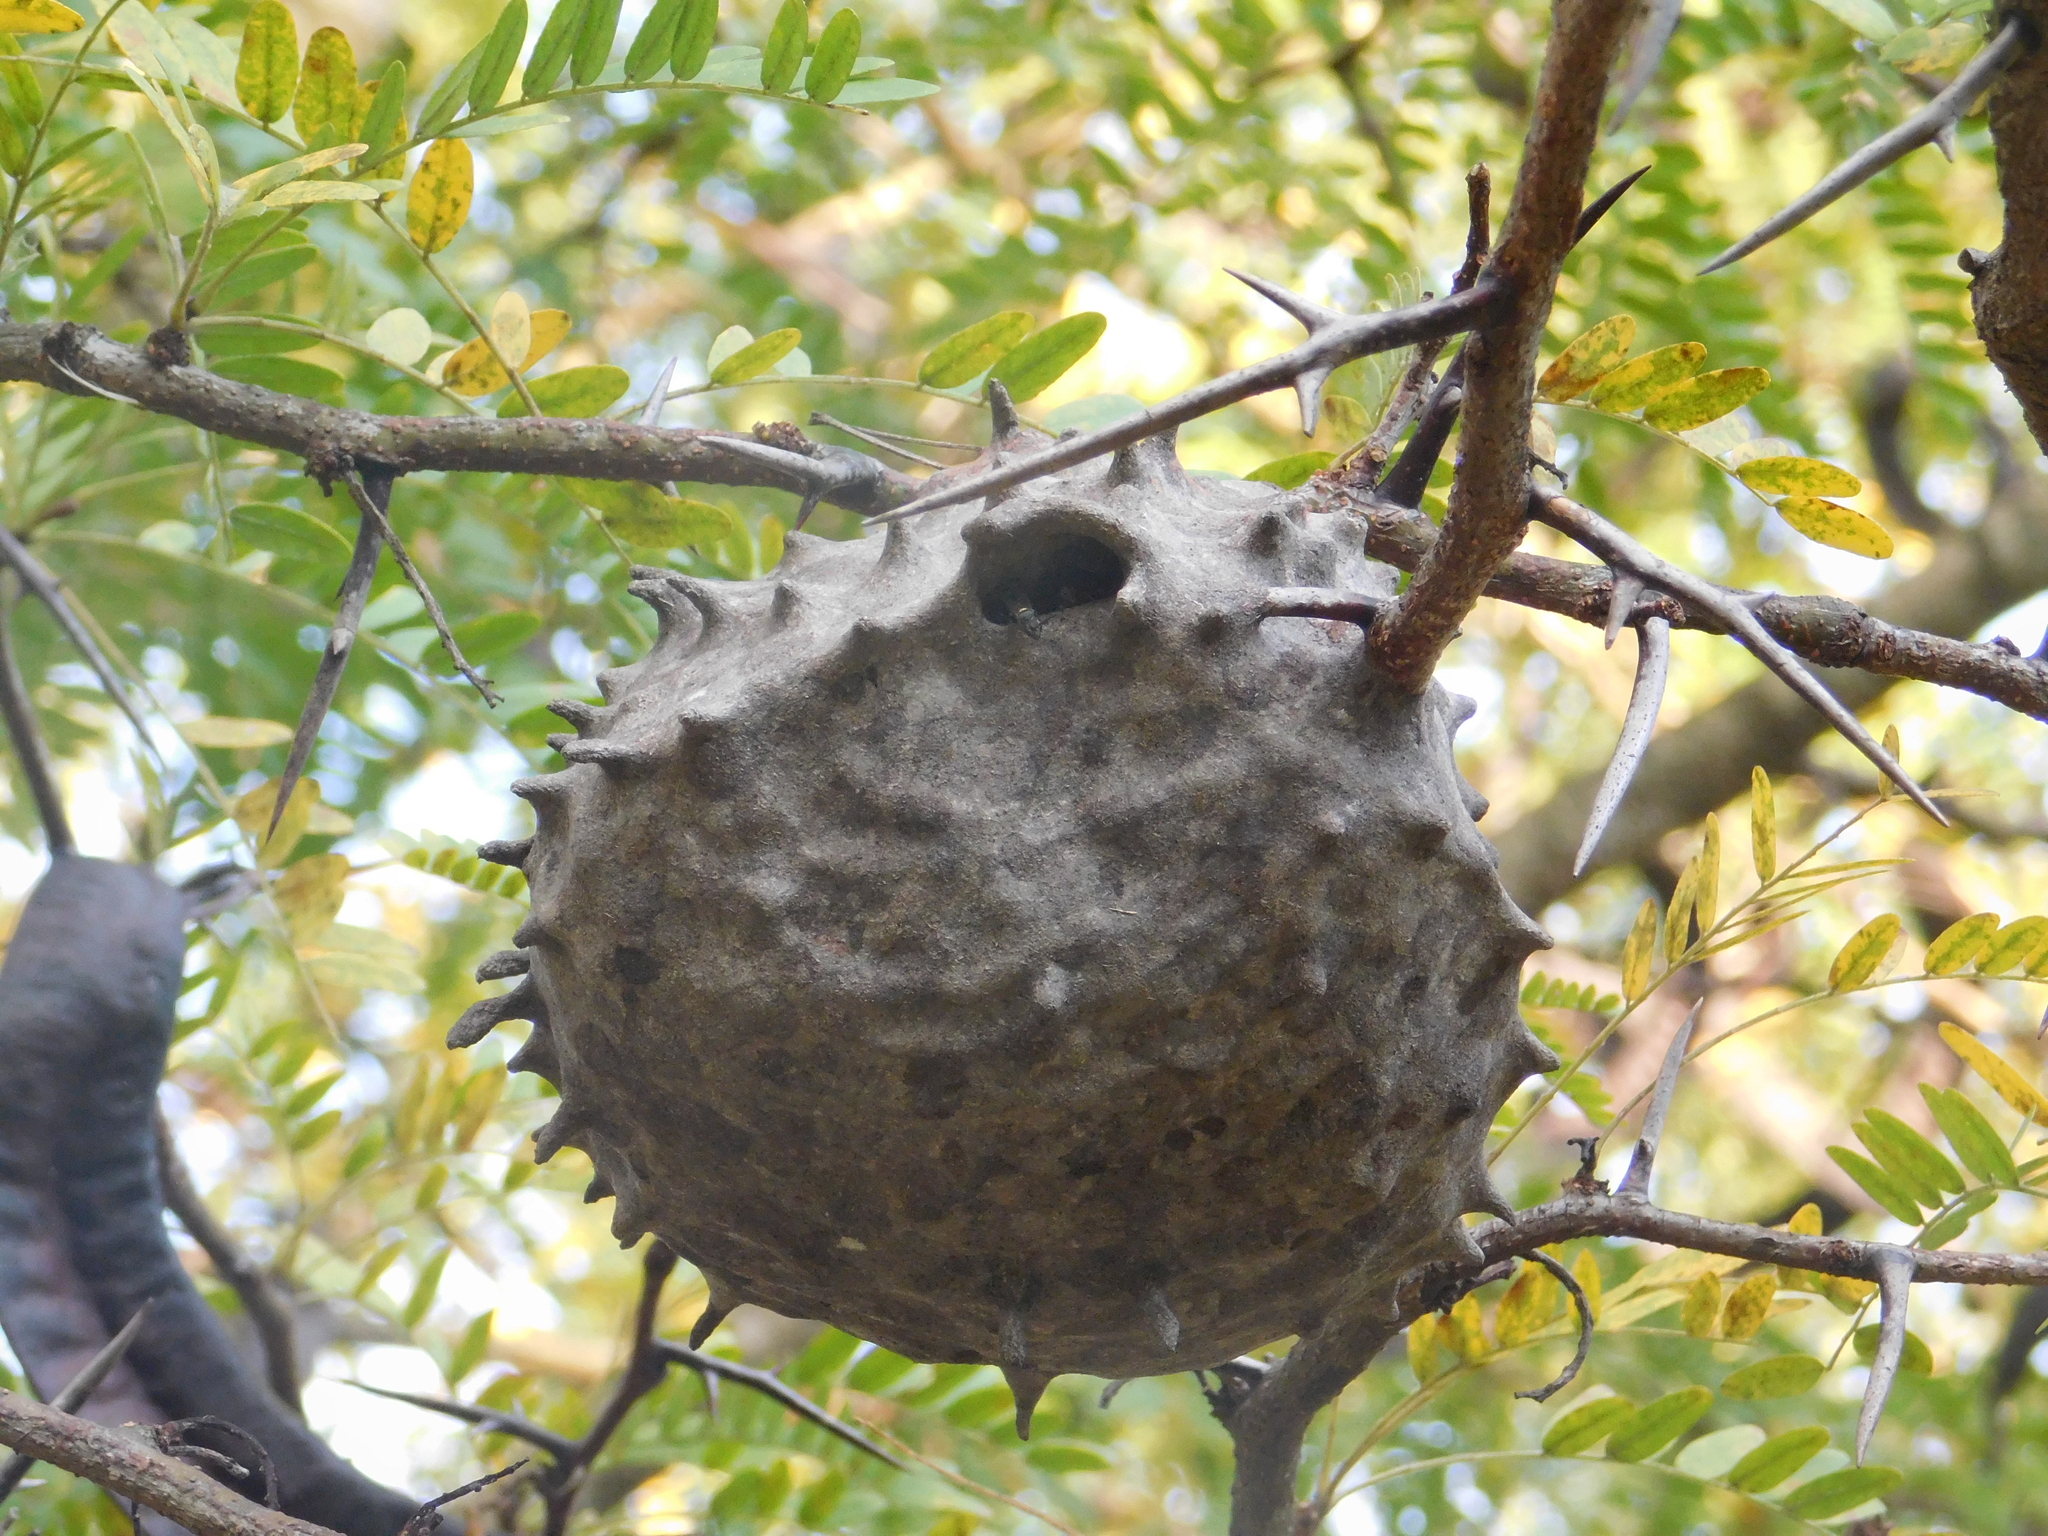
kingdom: Animalia
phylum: Arthropoda
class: Insecta
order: Hymenoptera
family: Eumenidae
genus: Polybia
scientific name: Polybia scutellaris
